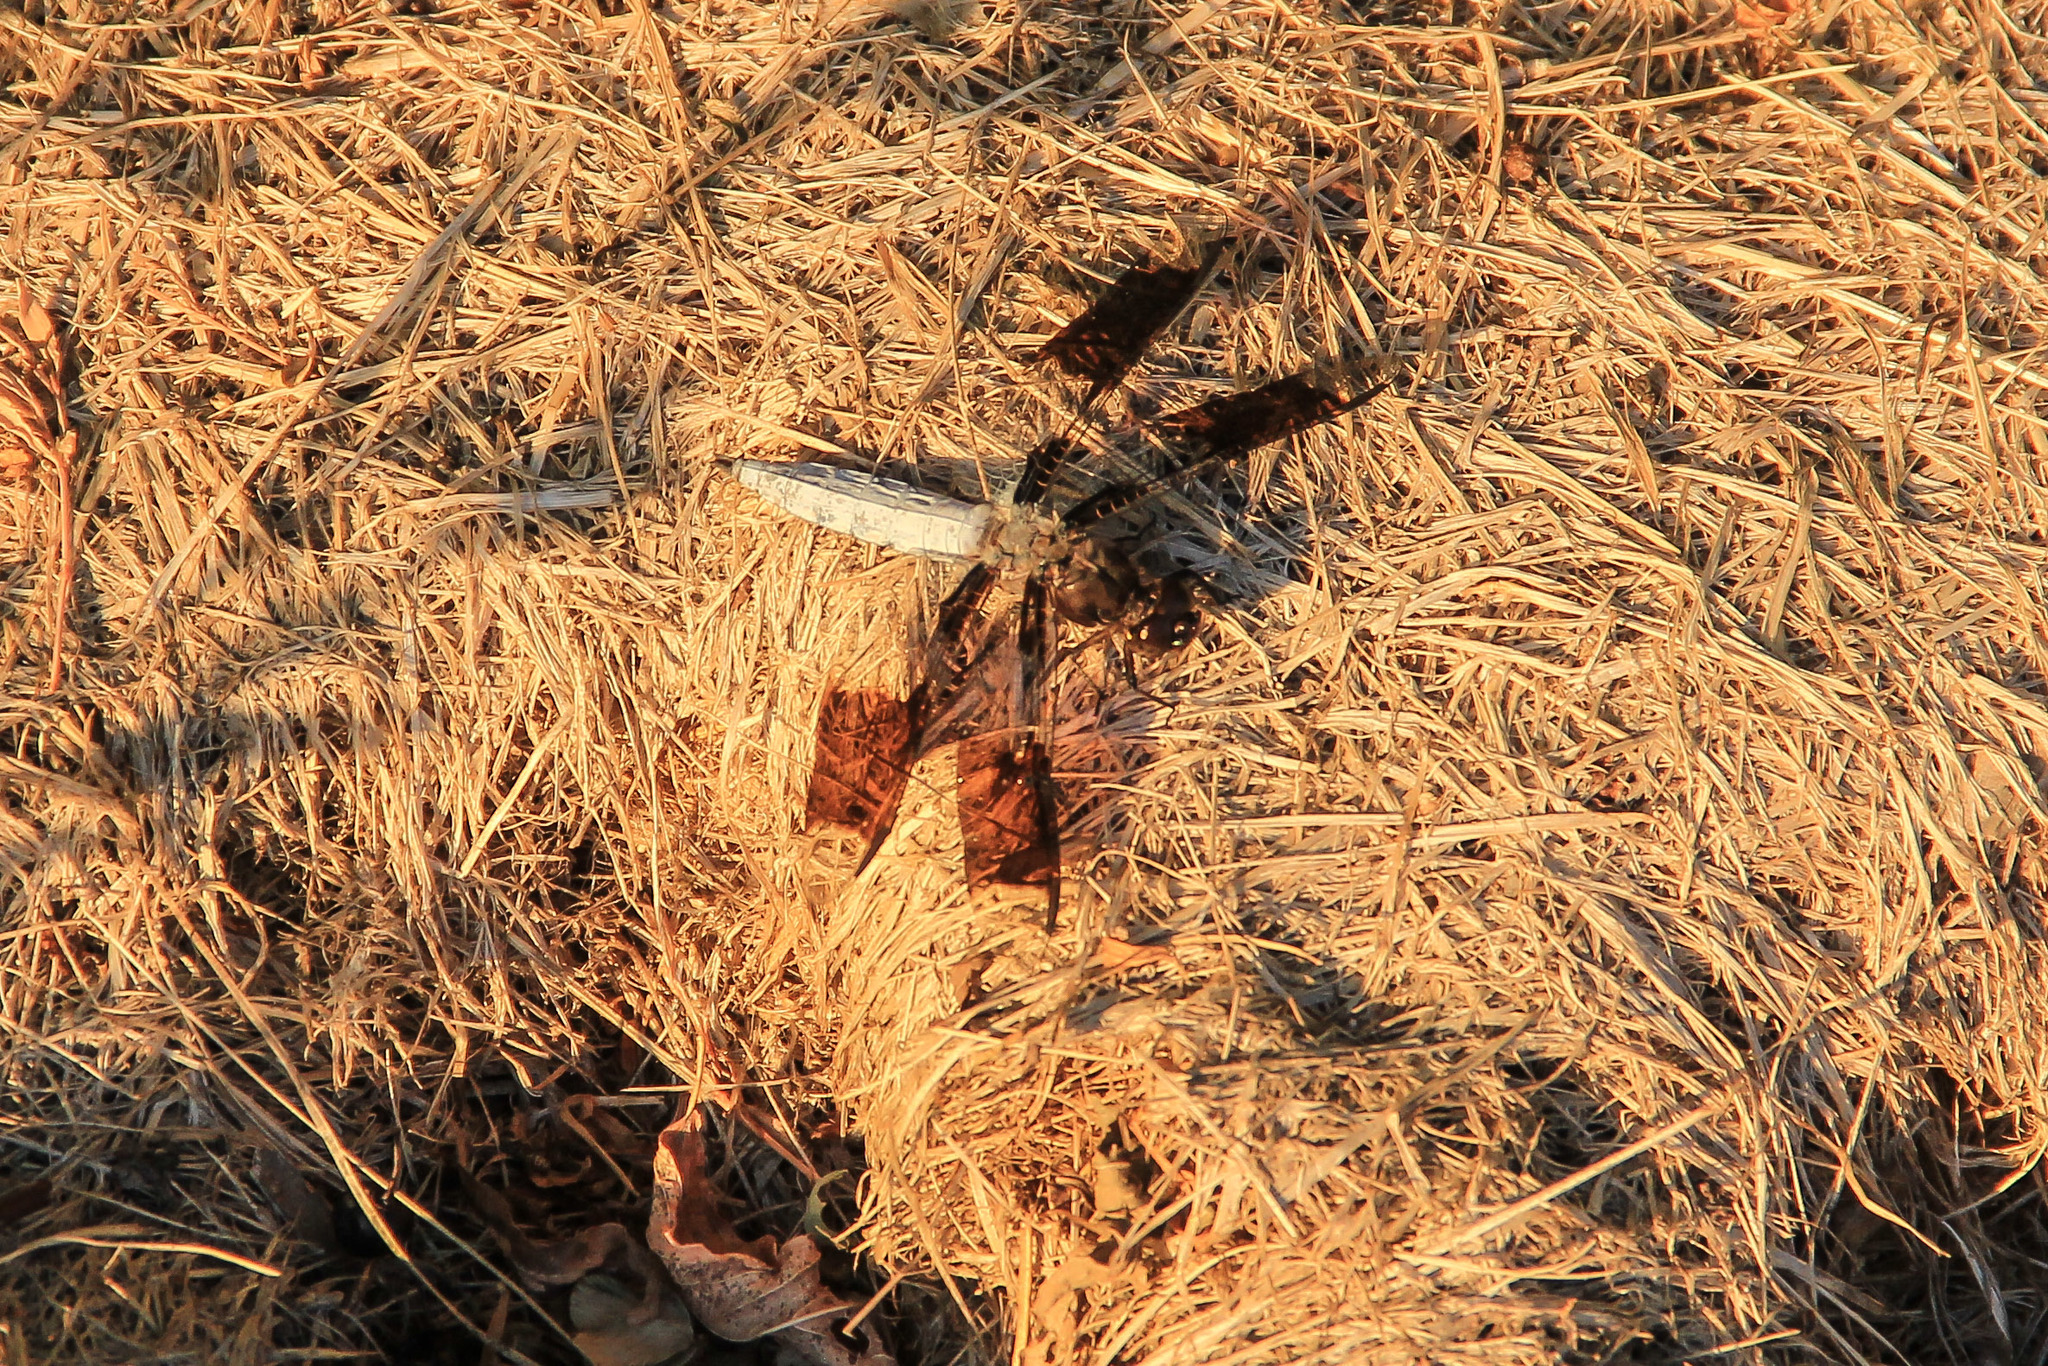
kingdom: Animalia
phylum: Arthropoda
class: Insecta
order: Odonata
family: Libellulidae
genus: Plathemis
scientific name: Plathemis lydia
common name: Common whitetail
